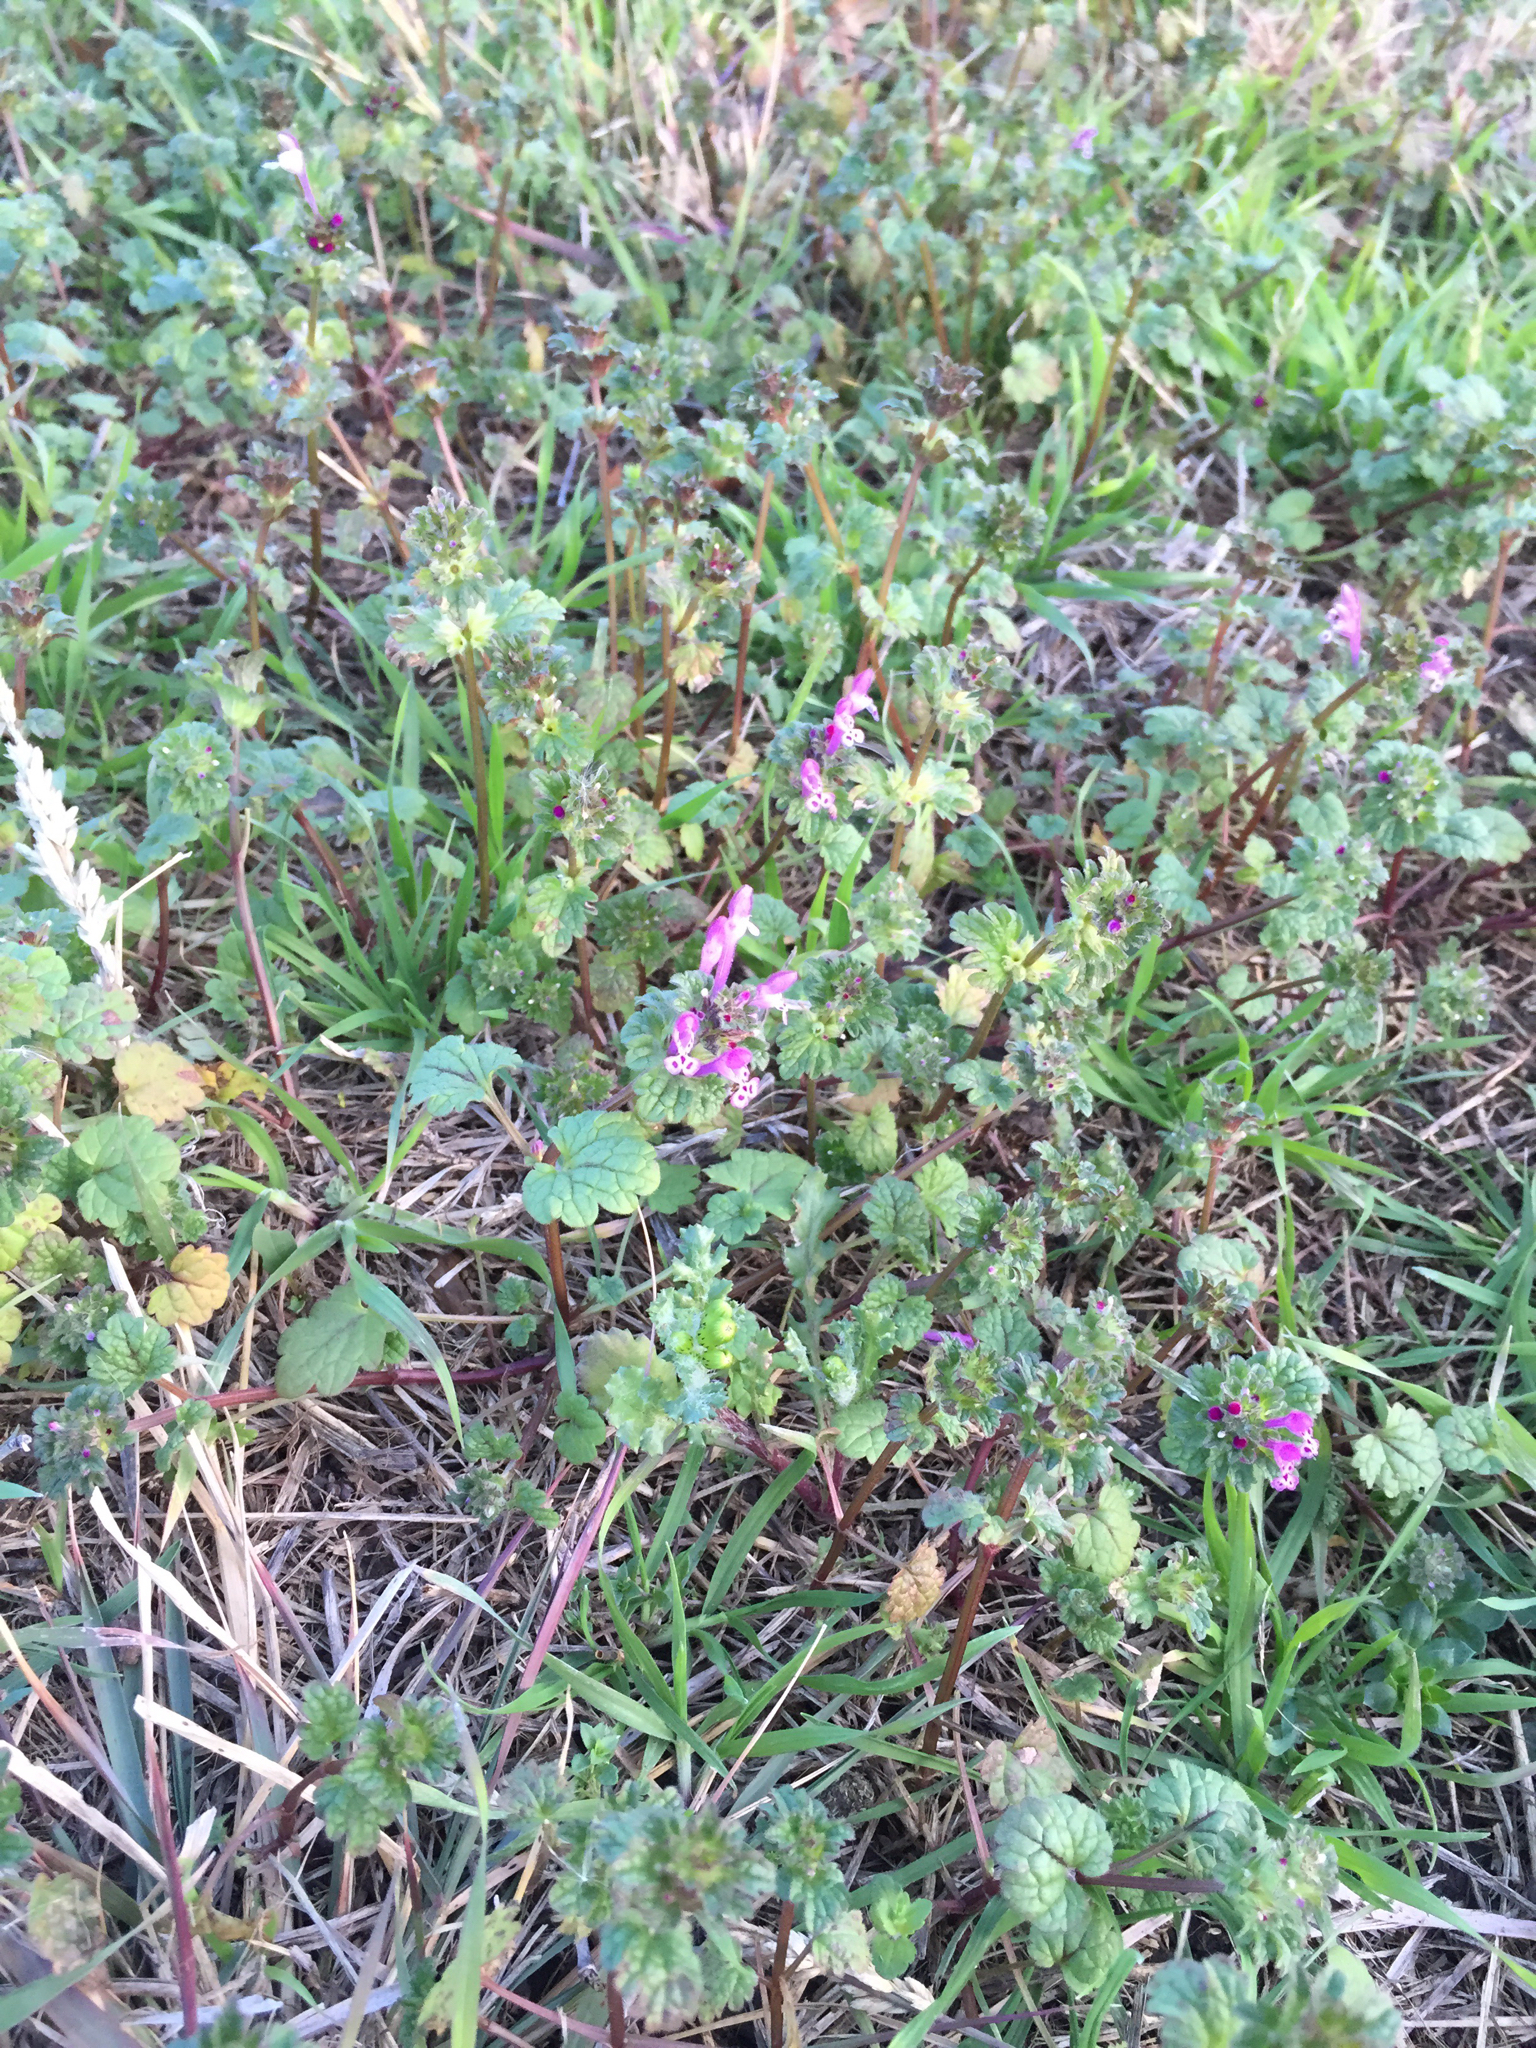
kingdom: Plantae
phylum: Tracheophyta
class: Magnoliopsida
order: Lamiales
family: Lamiaceae
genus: Lamium
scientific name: Lamium amplexicaule
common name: Henbit dead-nettle
